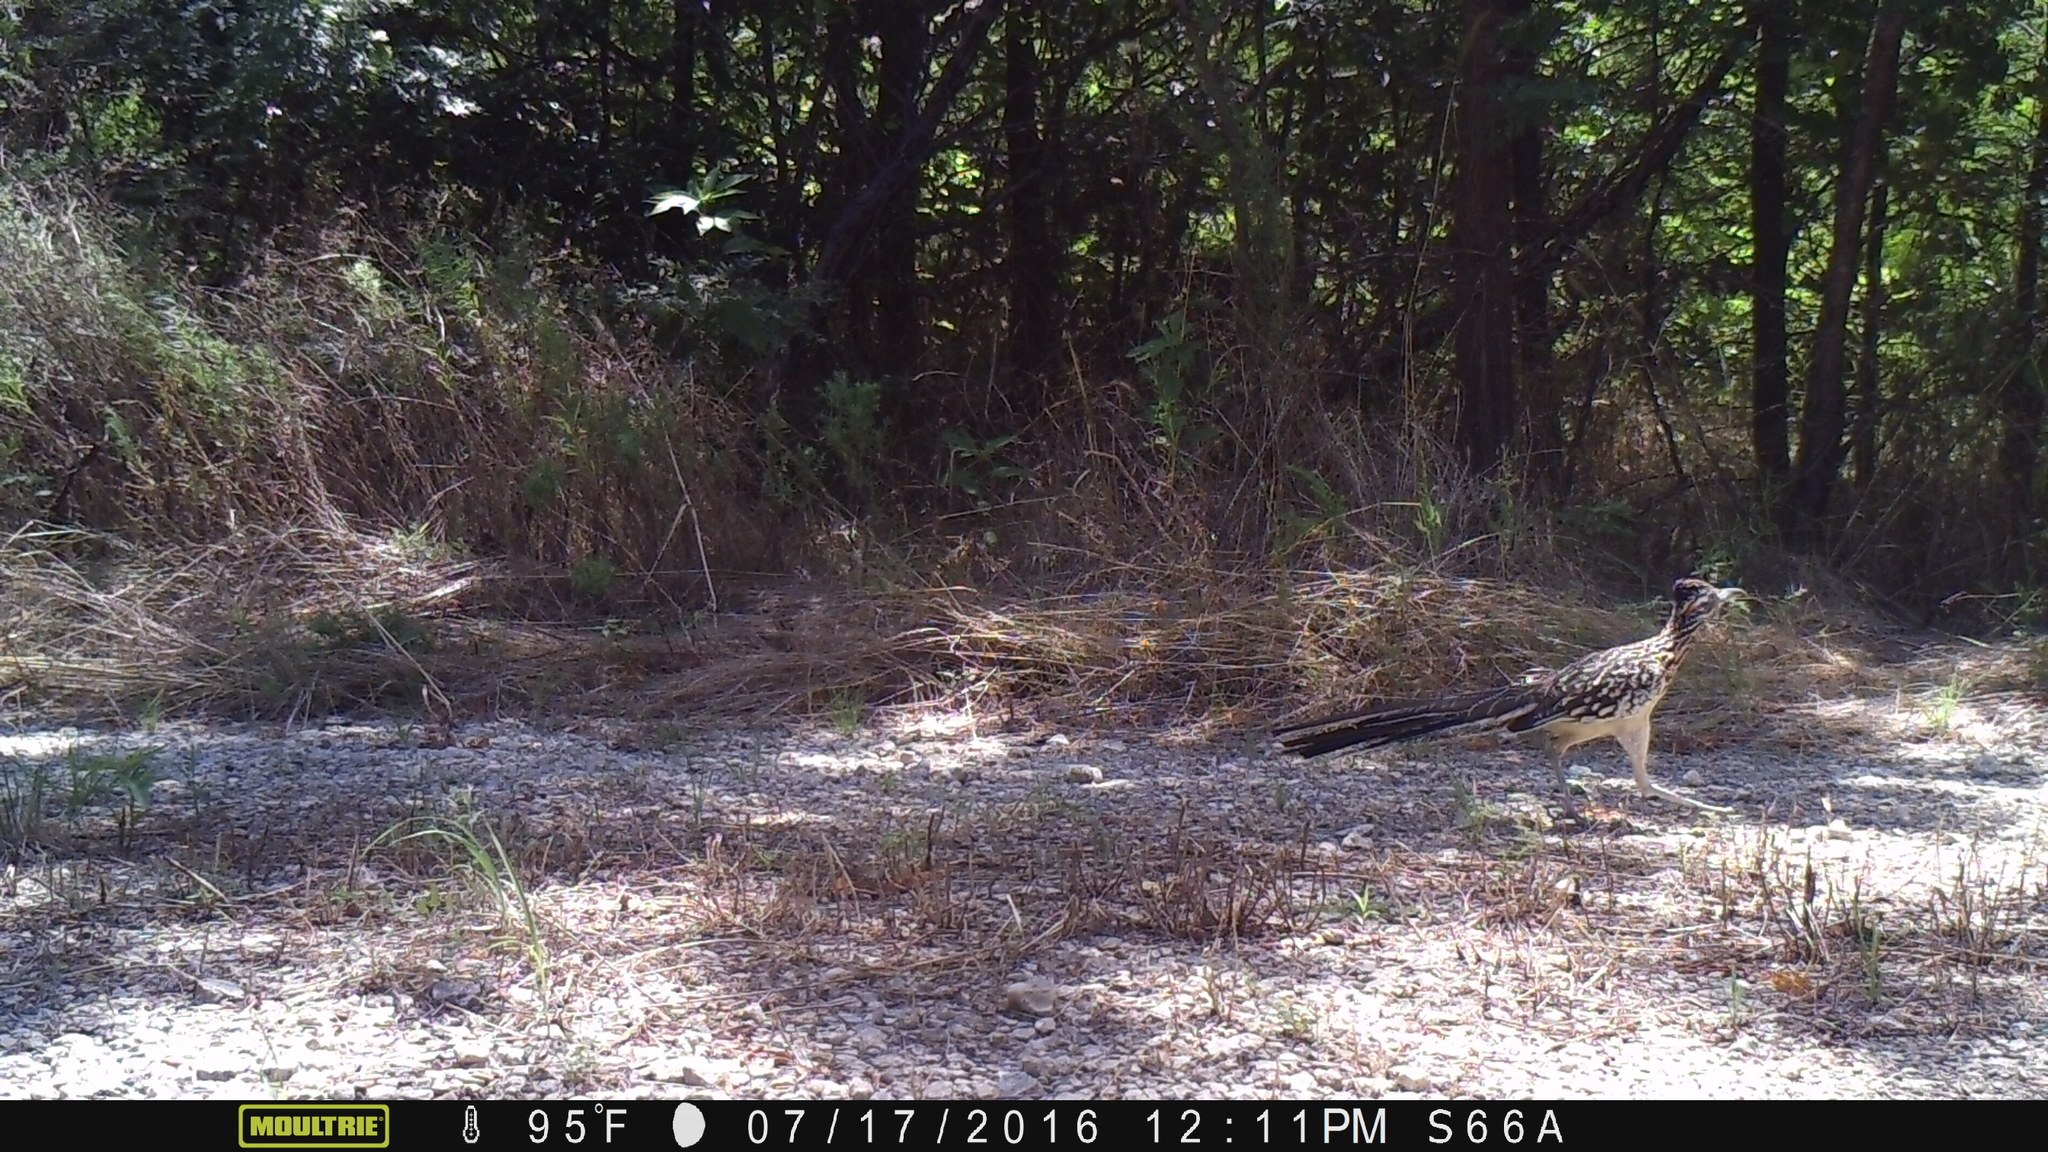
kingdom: Animalia
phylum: Chordata
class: Aves
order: Cuculiformes
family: Cuculidae
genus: Geococcyx
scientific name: Geococcyx californianus
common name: Greater roadrunner
